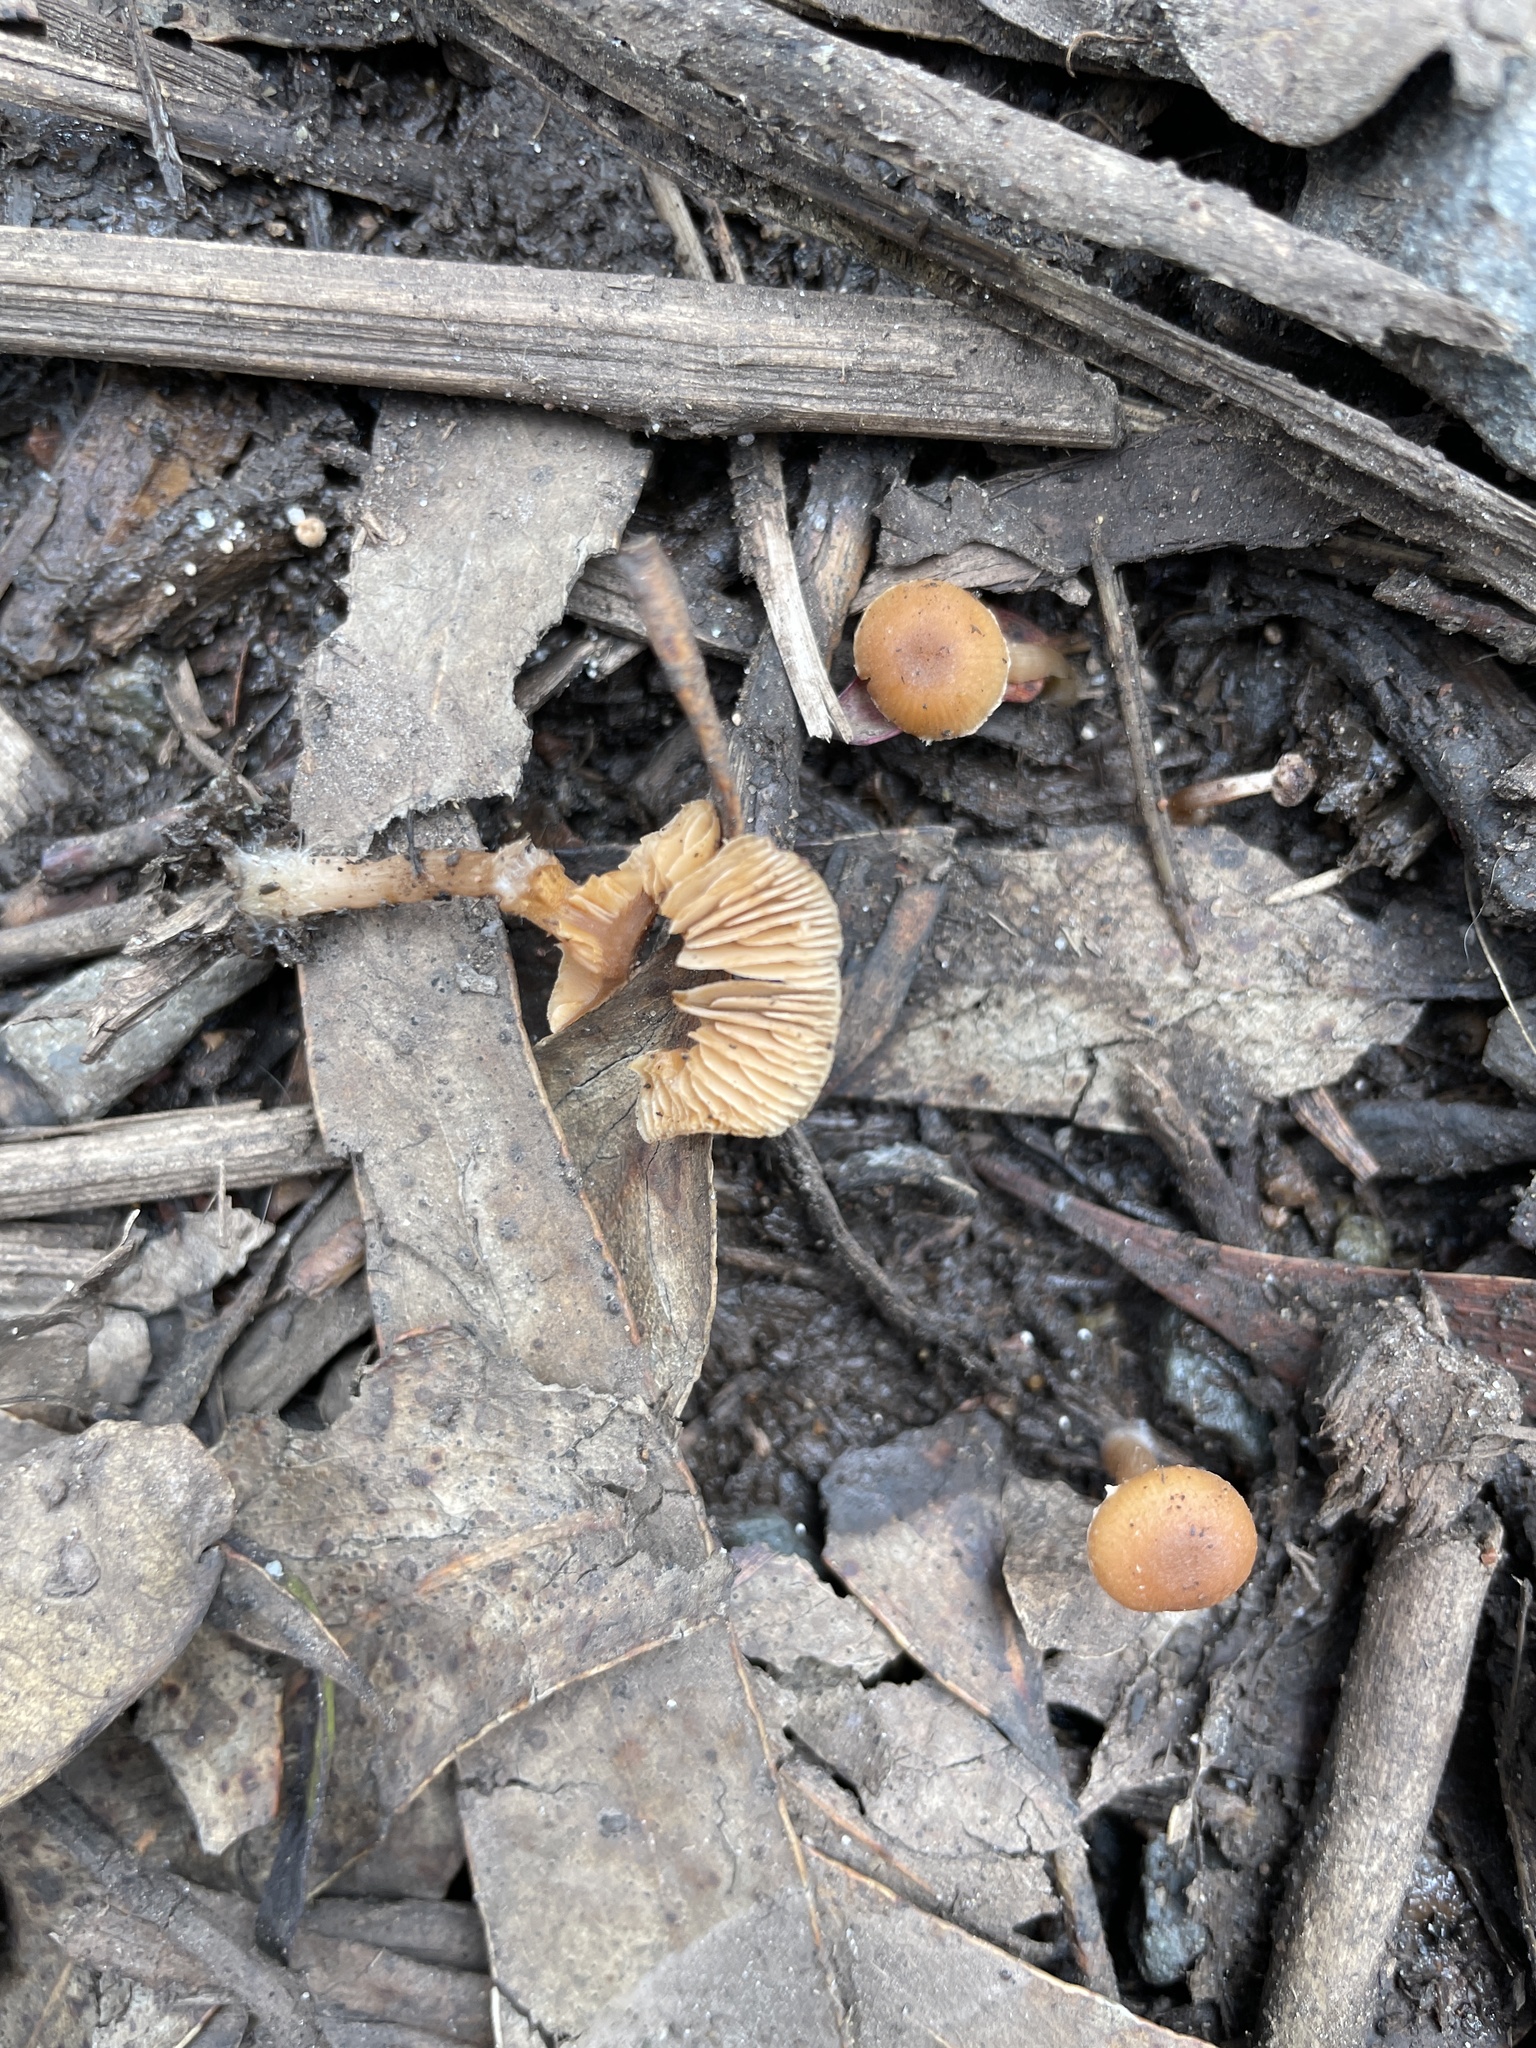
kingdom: Fungi
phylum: Basidiomycota
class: Agaricomycetes
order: Agaricales
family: Tubariaceae
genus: Tubaria
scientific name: Tubaria furfuracea
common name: Scurfy twiglet
